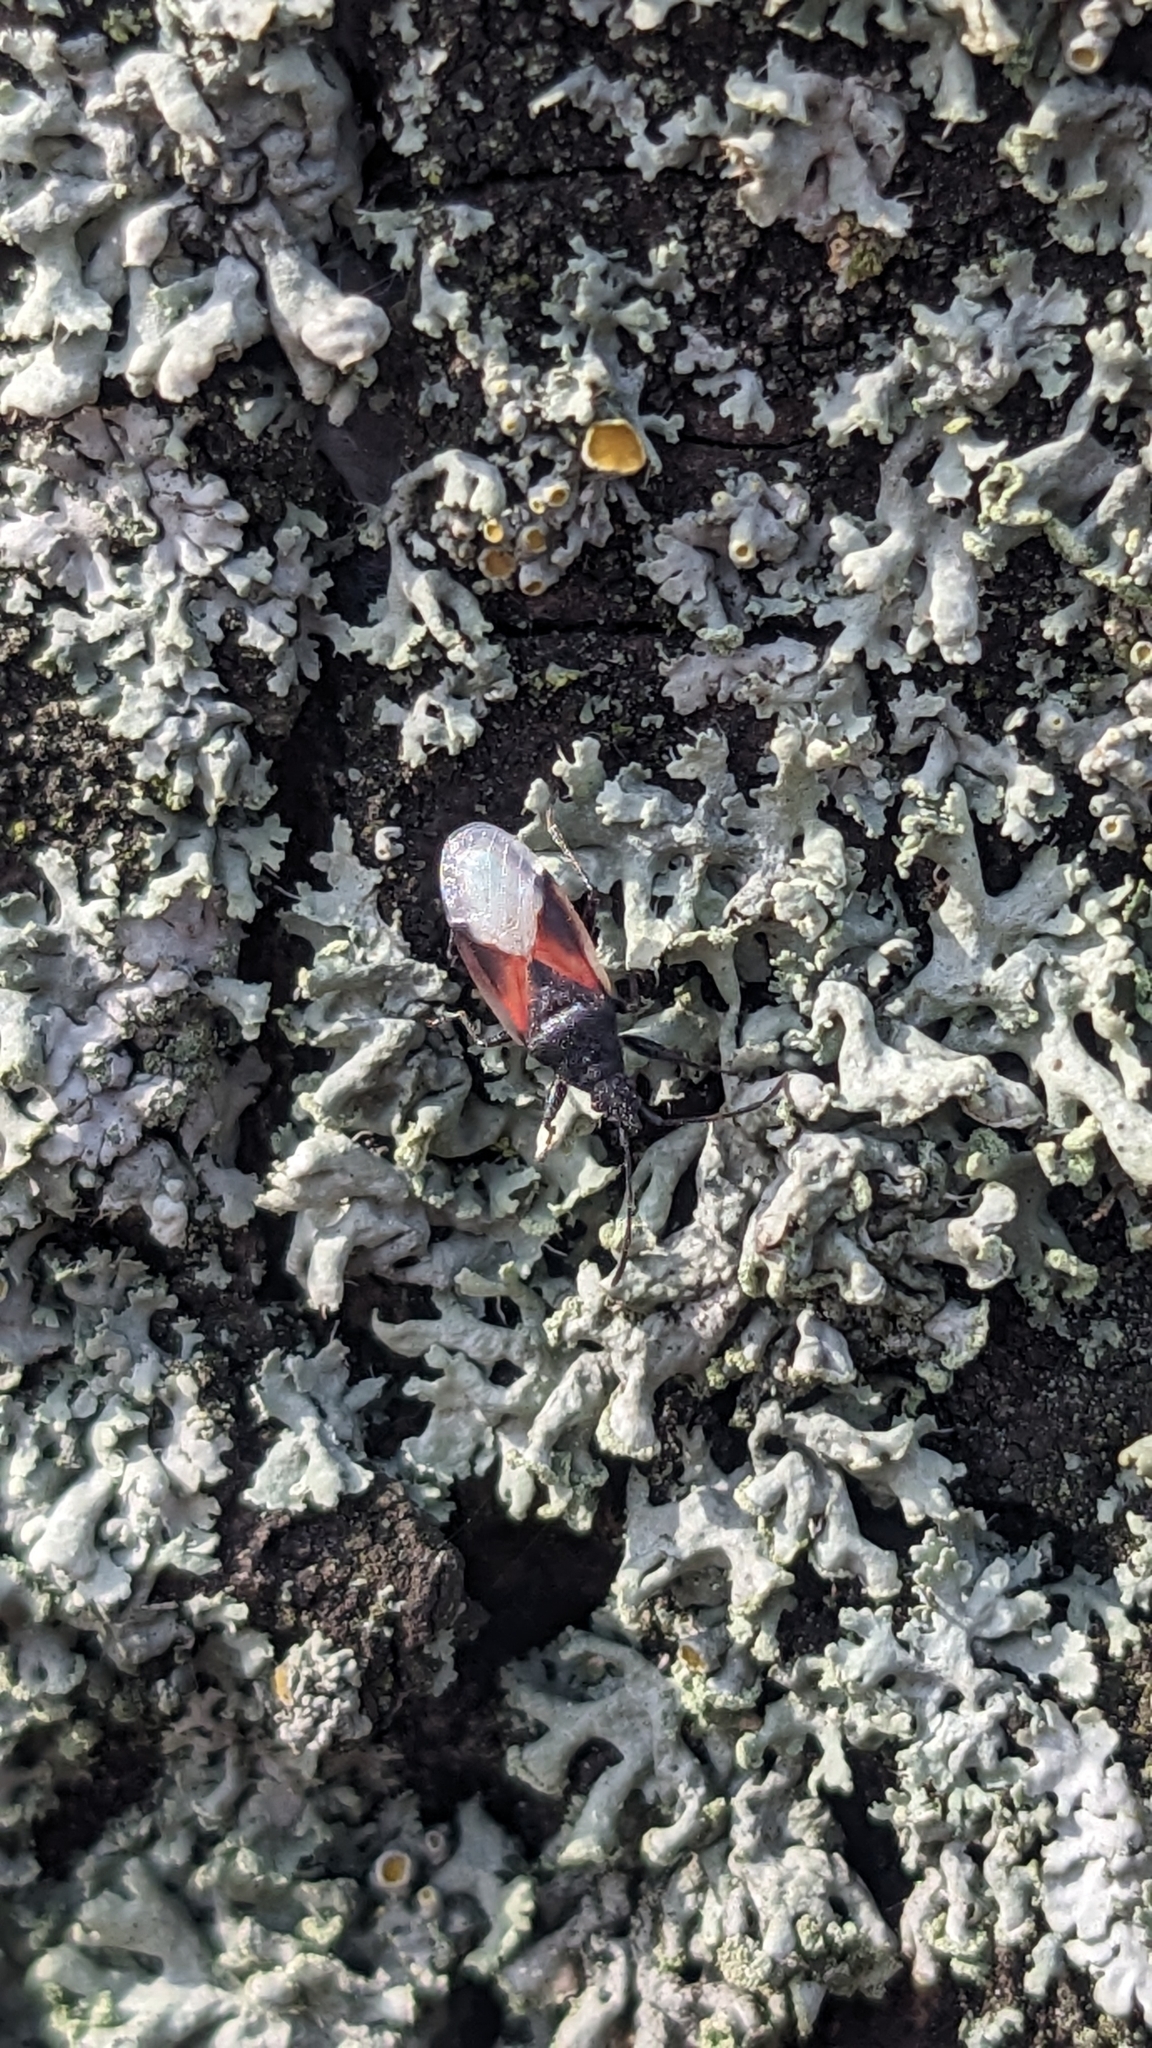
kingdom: Animalia
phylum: Arthropoda
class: Insecta
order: Hemiptera
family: Oxycarenidae
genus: Oxycarenus
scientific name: Oxycarenus lavaterae
